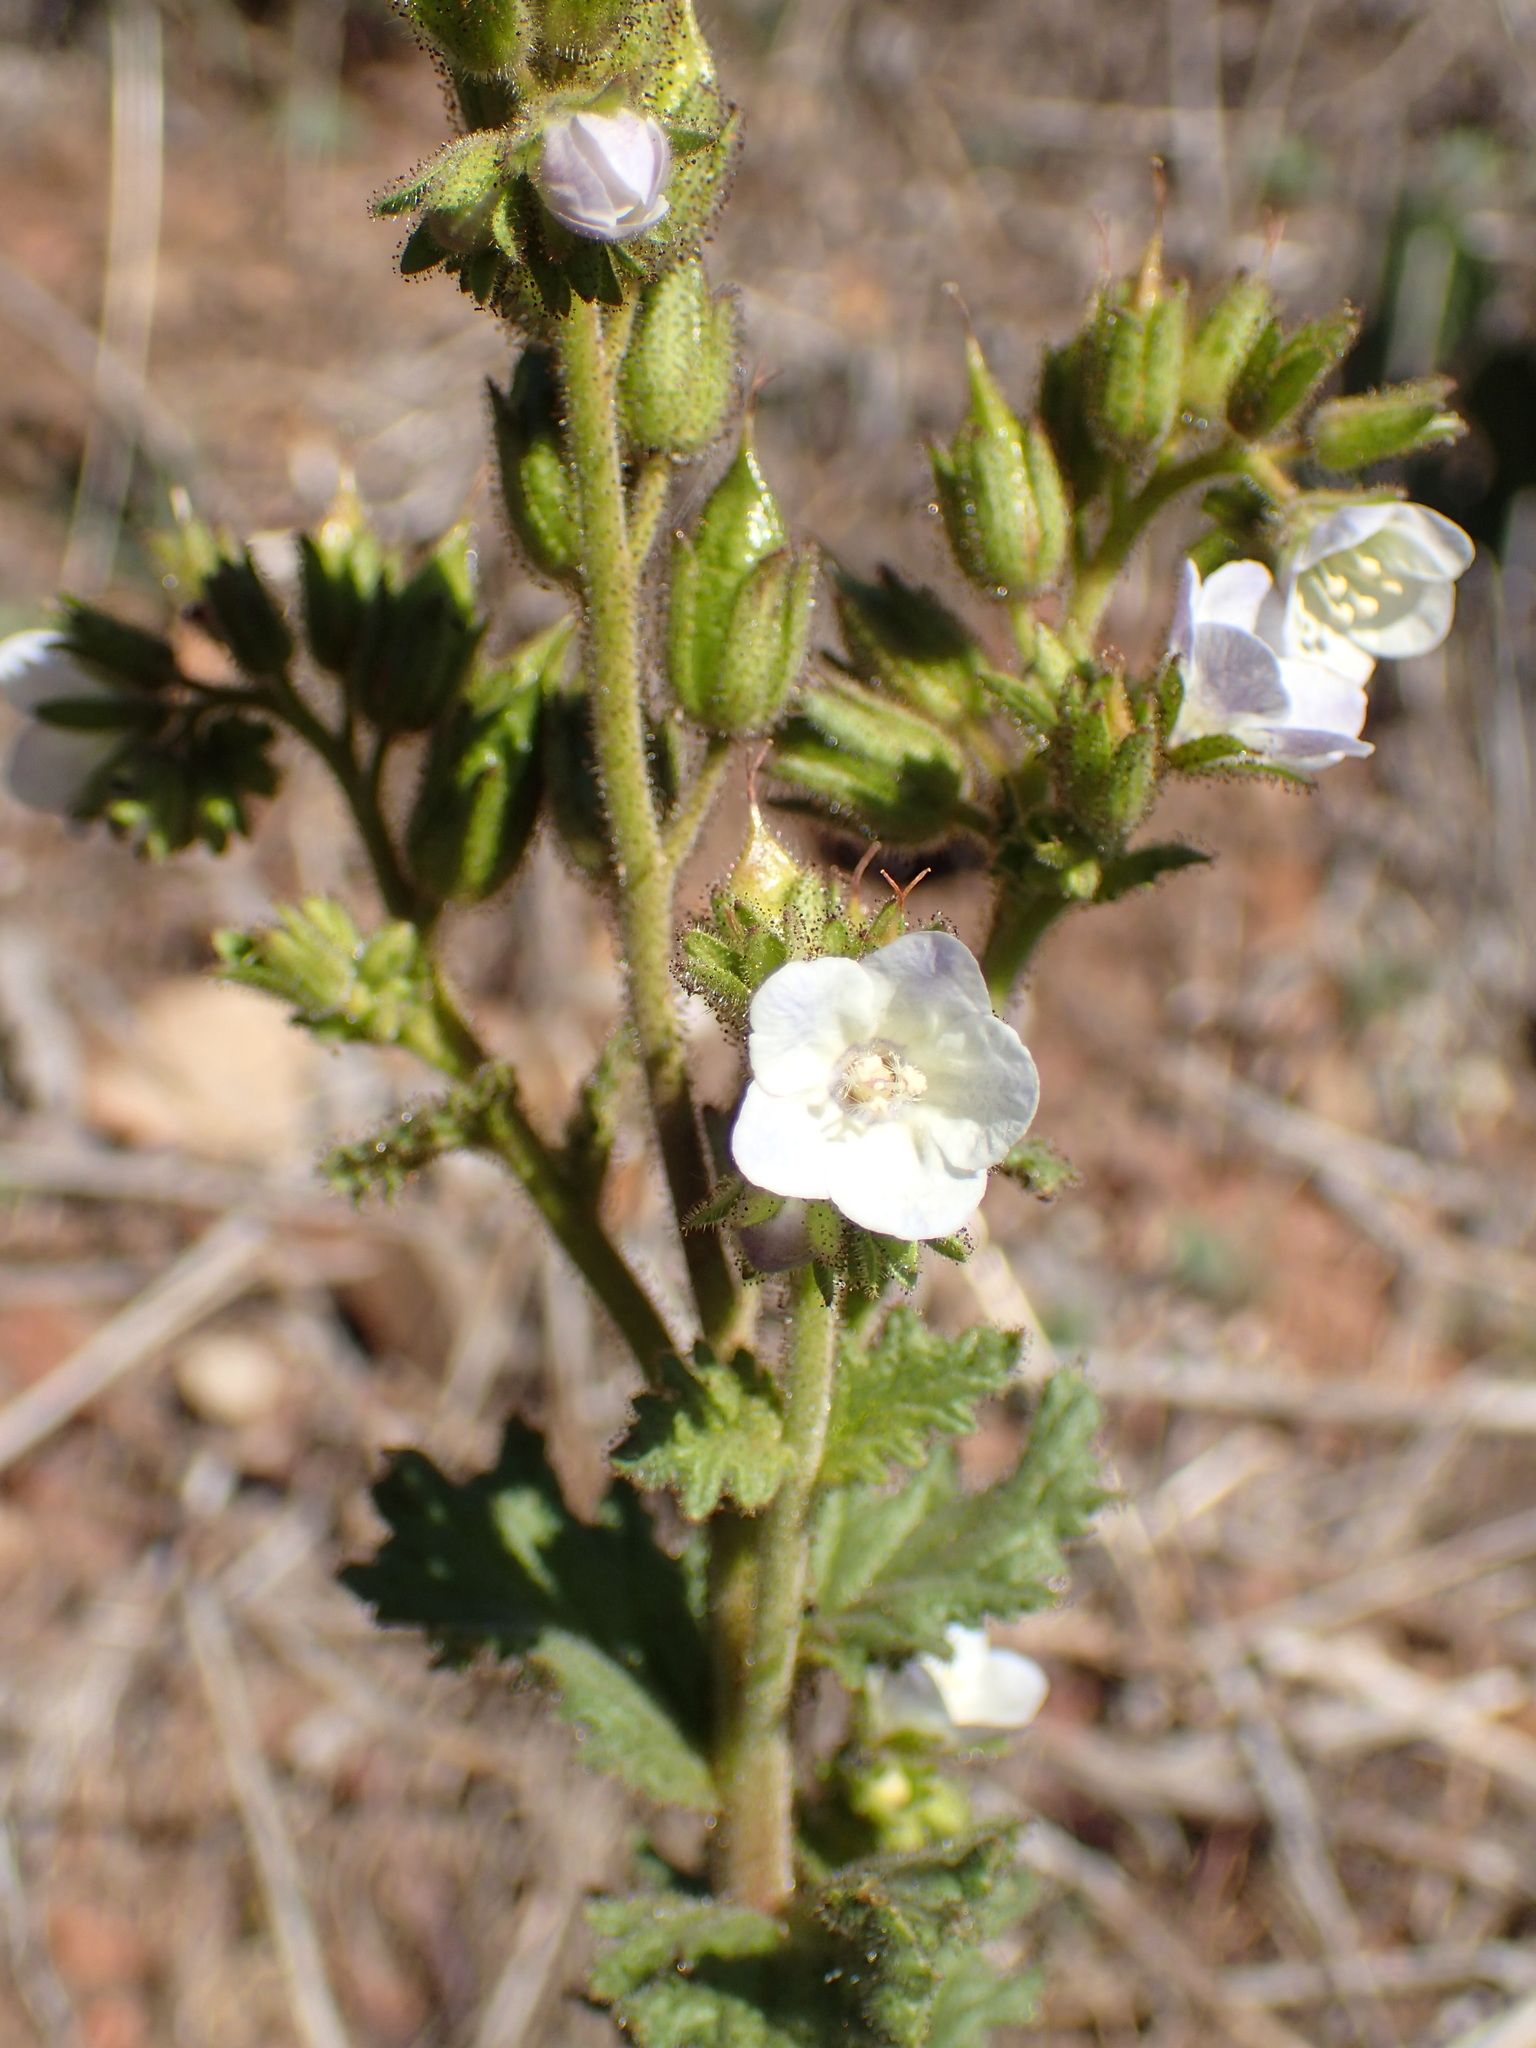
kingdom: Plantae
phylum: Tracheophyta
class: Magnoliopsida
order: Boraginales
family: Hydrophyllaceae
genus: Phacelia
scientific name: Phacelia viscida
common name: Sticky phacelia
